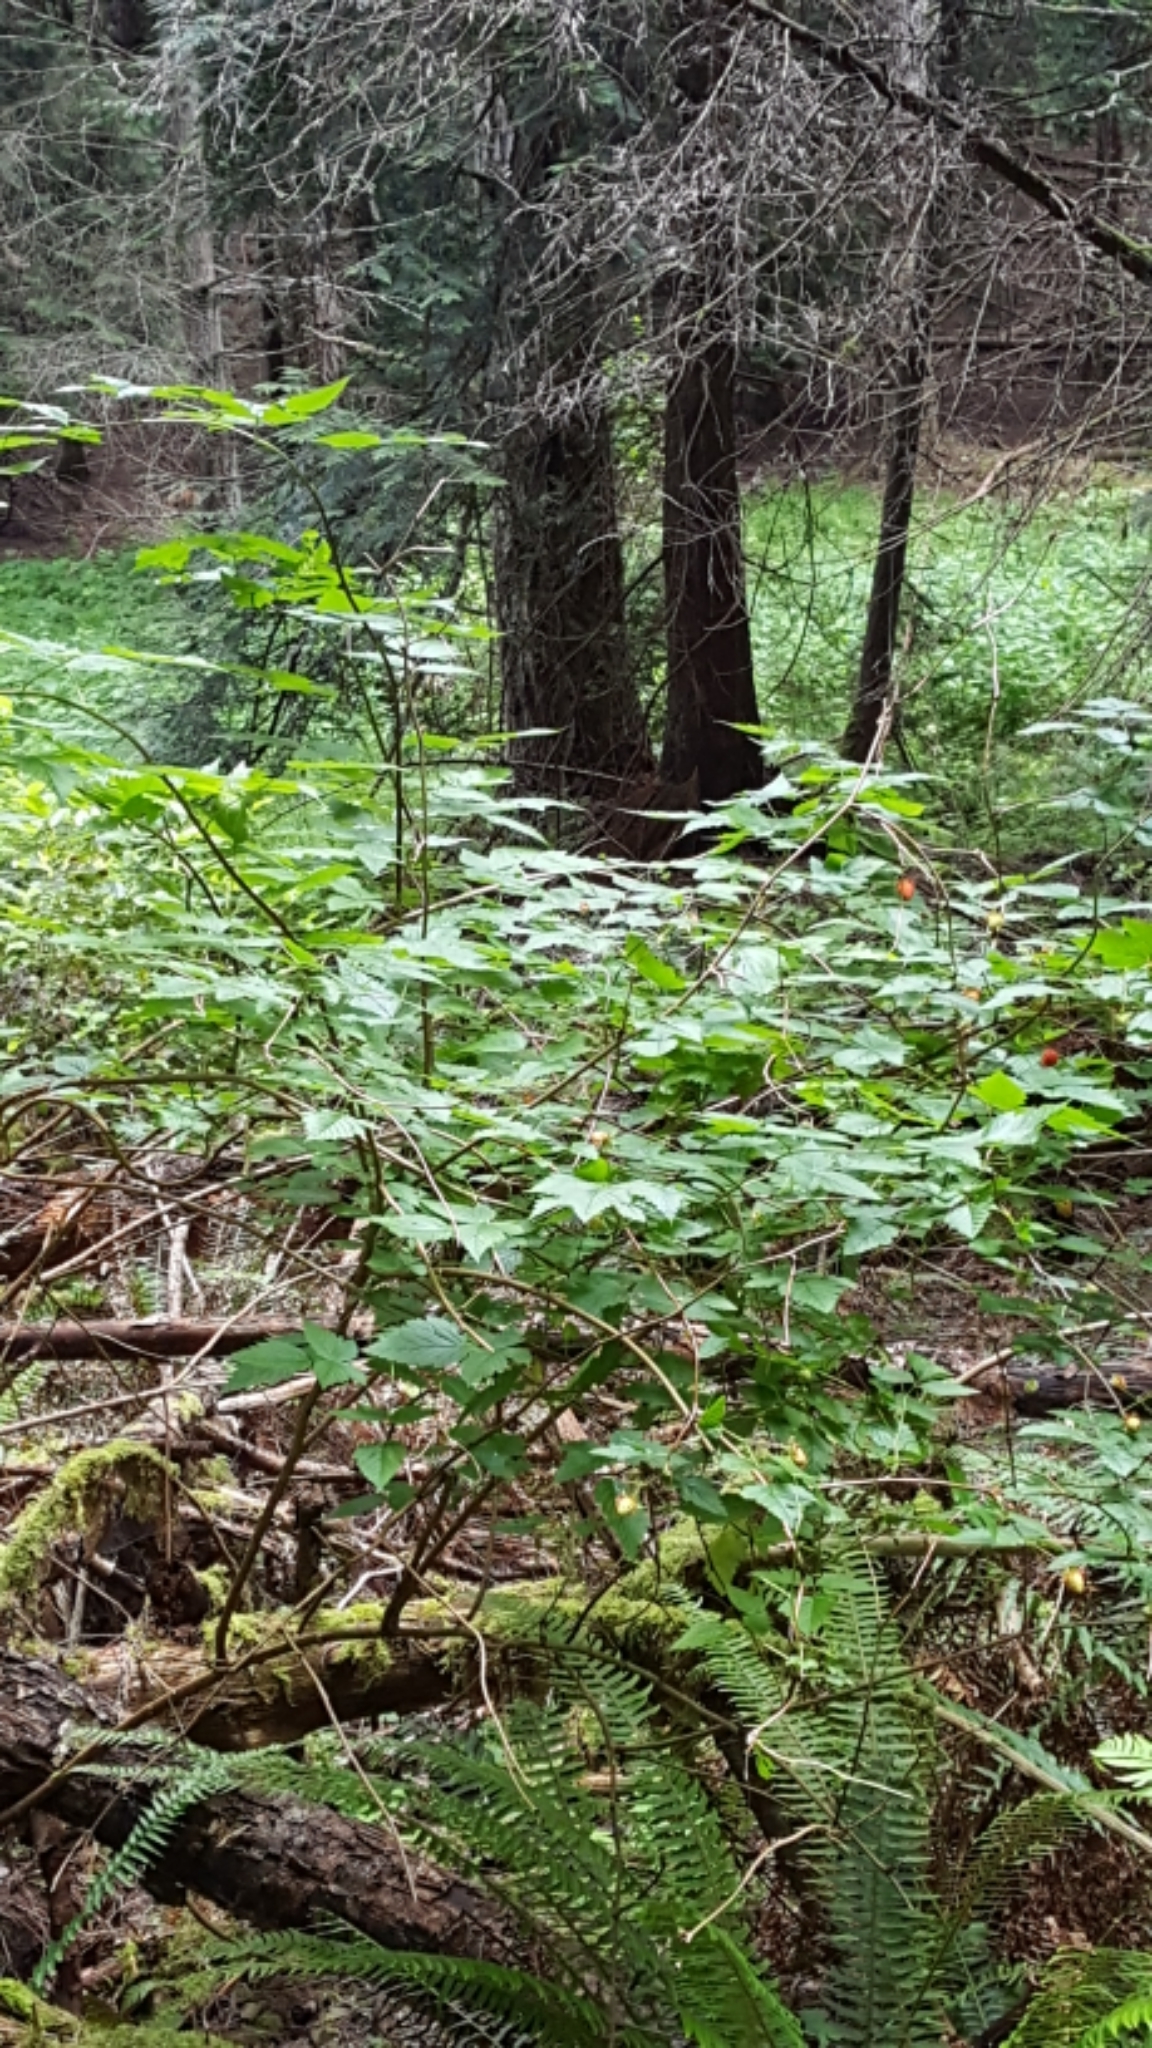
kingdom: Plantae
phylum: Tracheophyta
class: Magnoliopsida
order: Rosales
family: Rosaceae
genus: Rubus
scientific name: Rubus spectabilis
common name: Salmonberry
